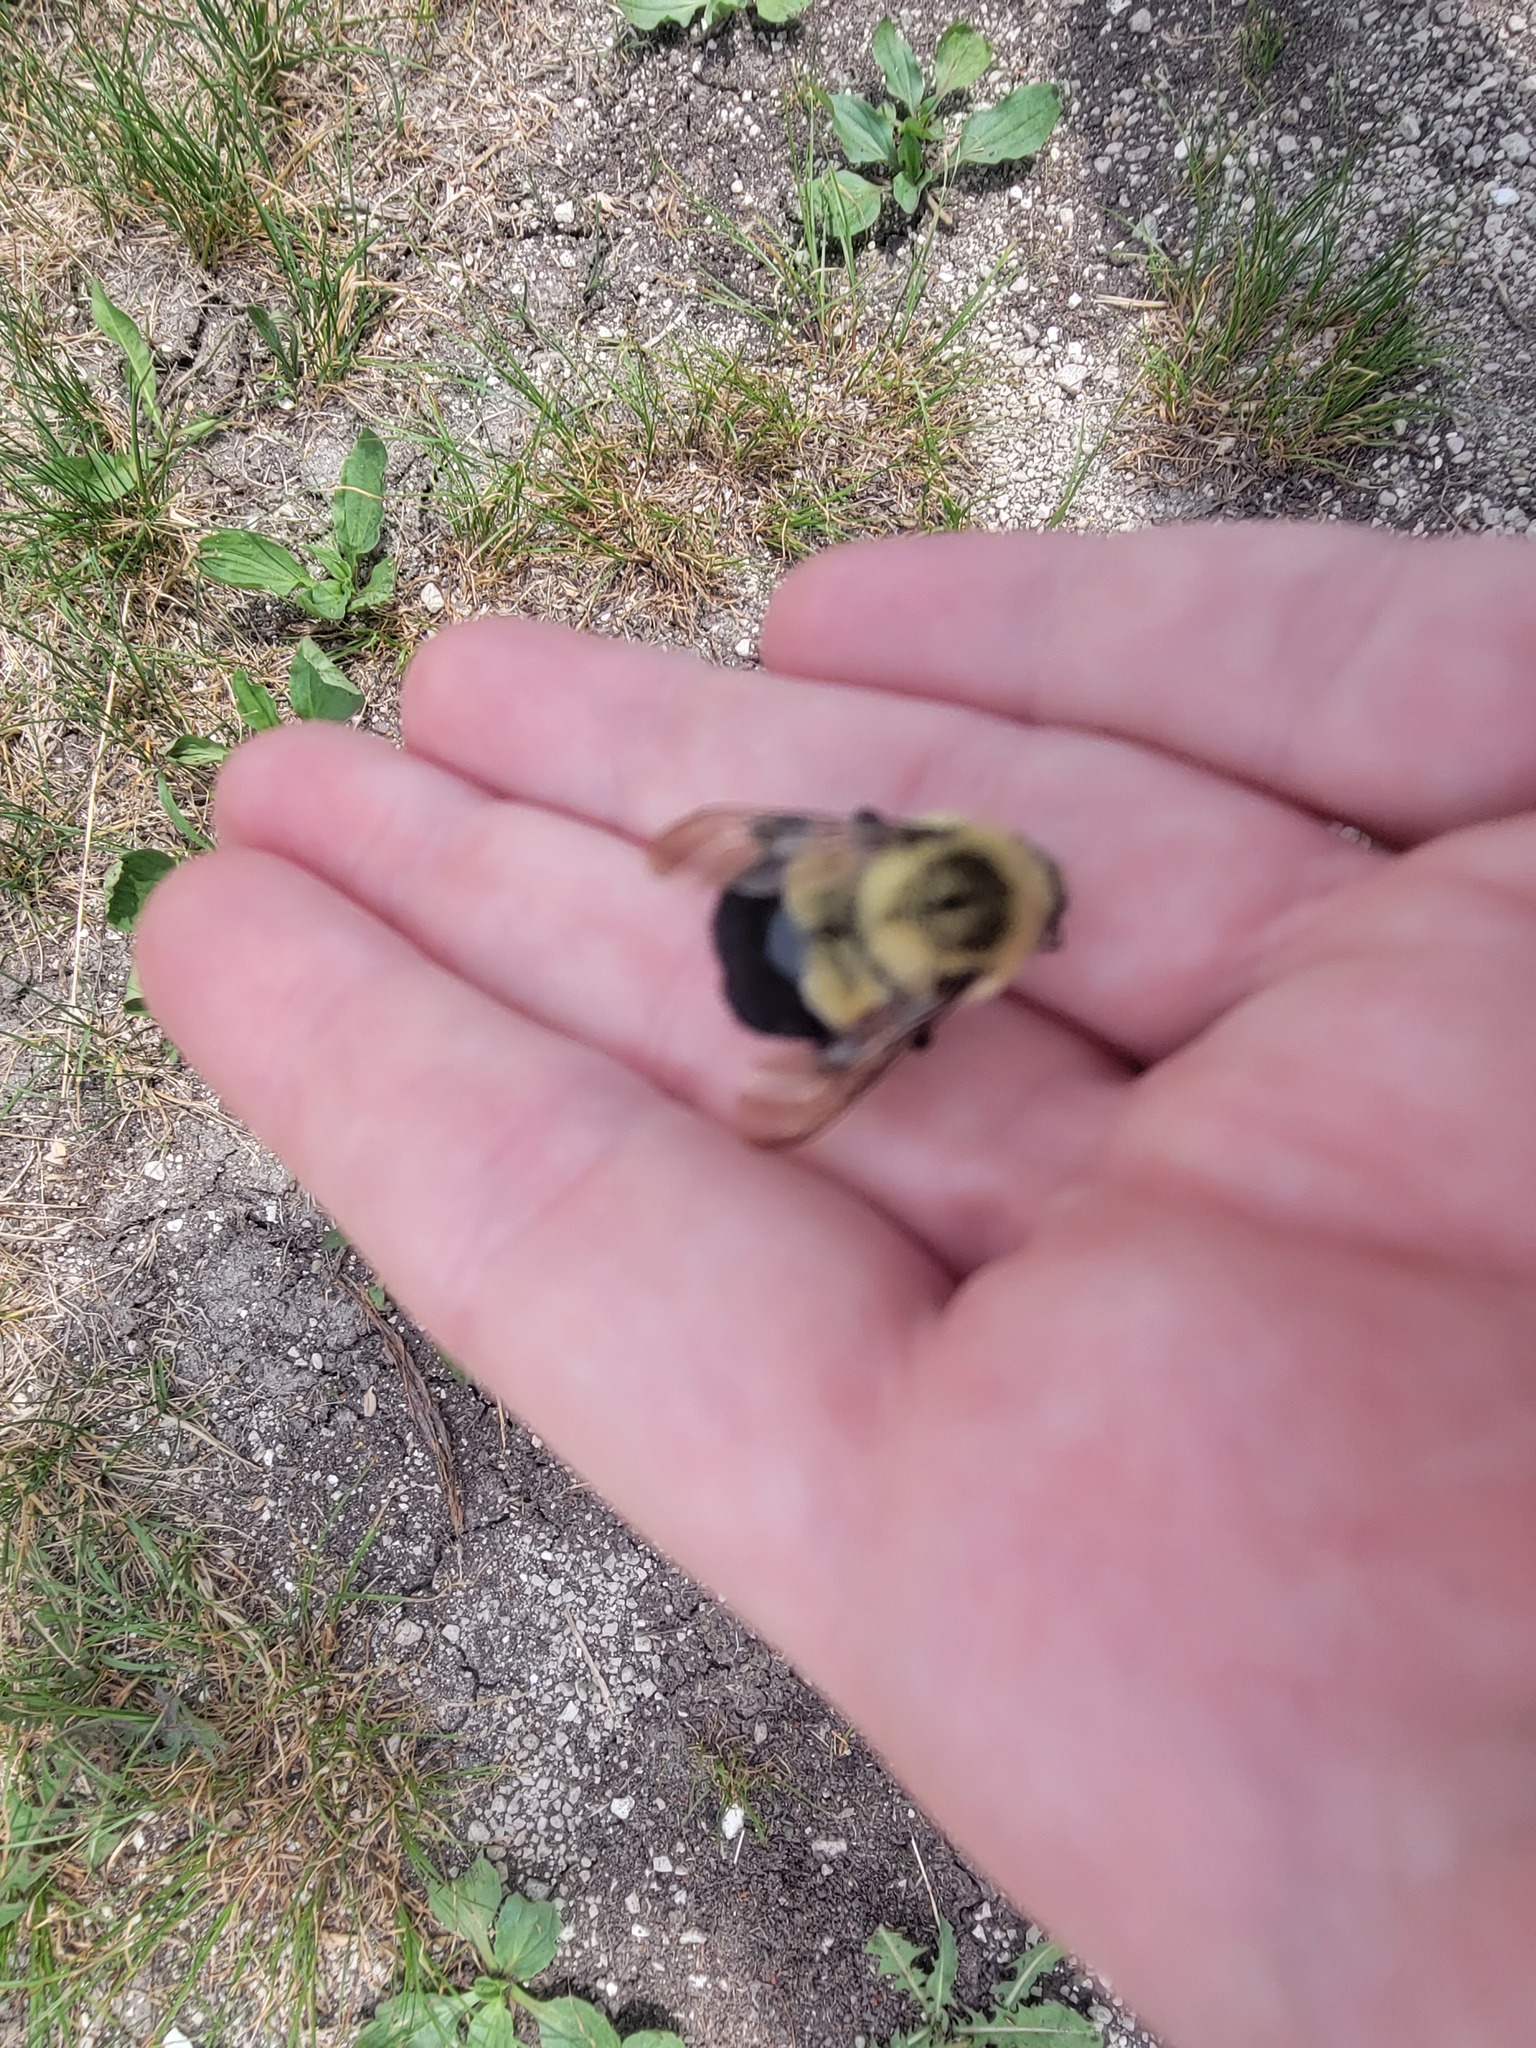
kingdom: Animalia
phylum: Arthropoda
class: Insecta
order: Hymenoptera
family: Apidae
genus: Bombus
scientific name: Bombus impatiens
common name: Common eastern bumble bee
